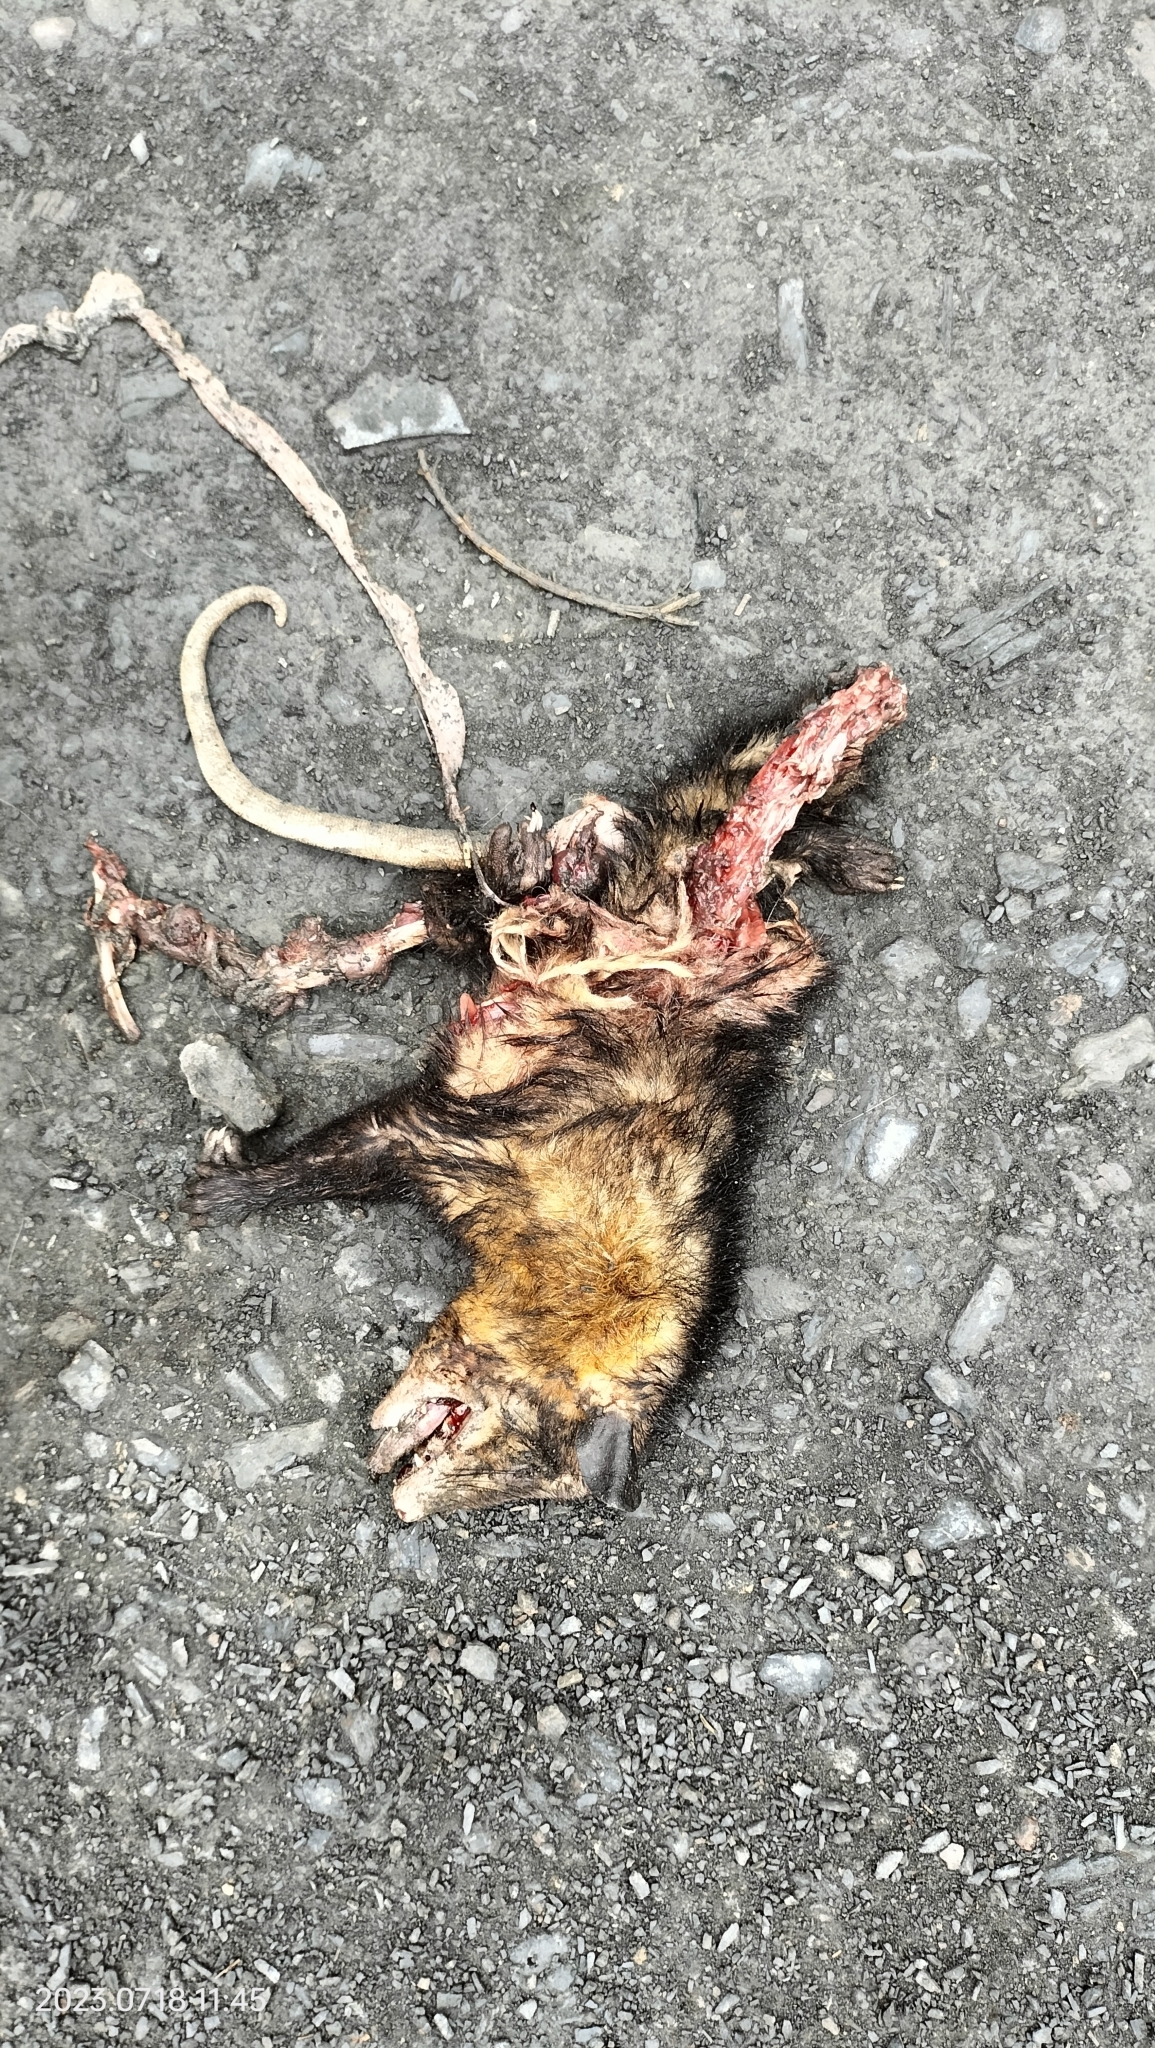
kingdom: Animalia
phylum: Chordata
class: Mammalia
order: Didelphimorphia
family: Didelphidae
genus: Didelphis
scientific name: Didelphis marsupialis
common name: Common opossum
